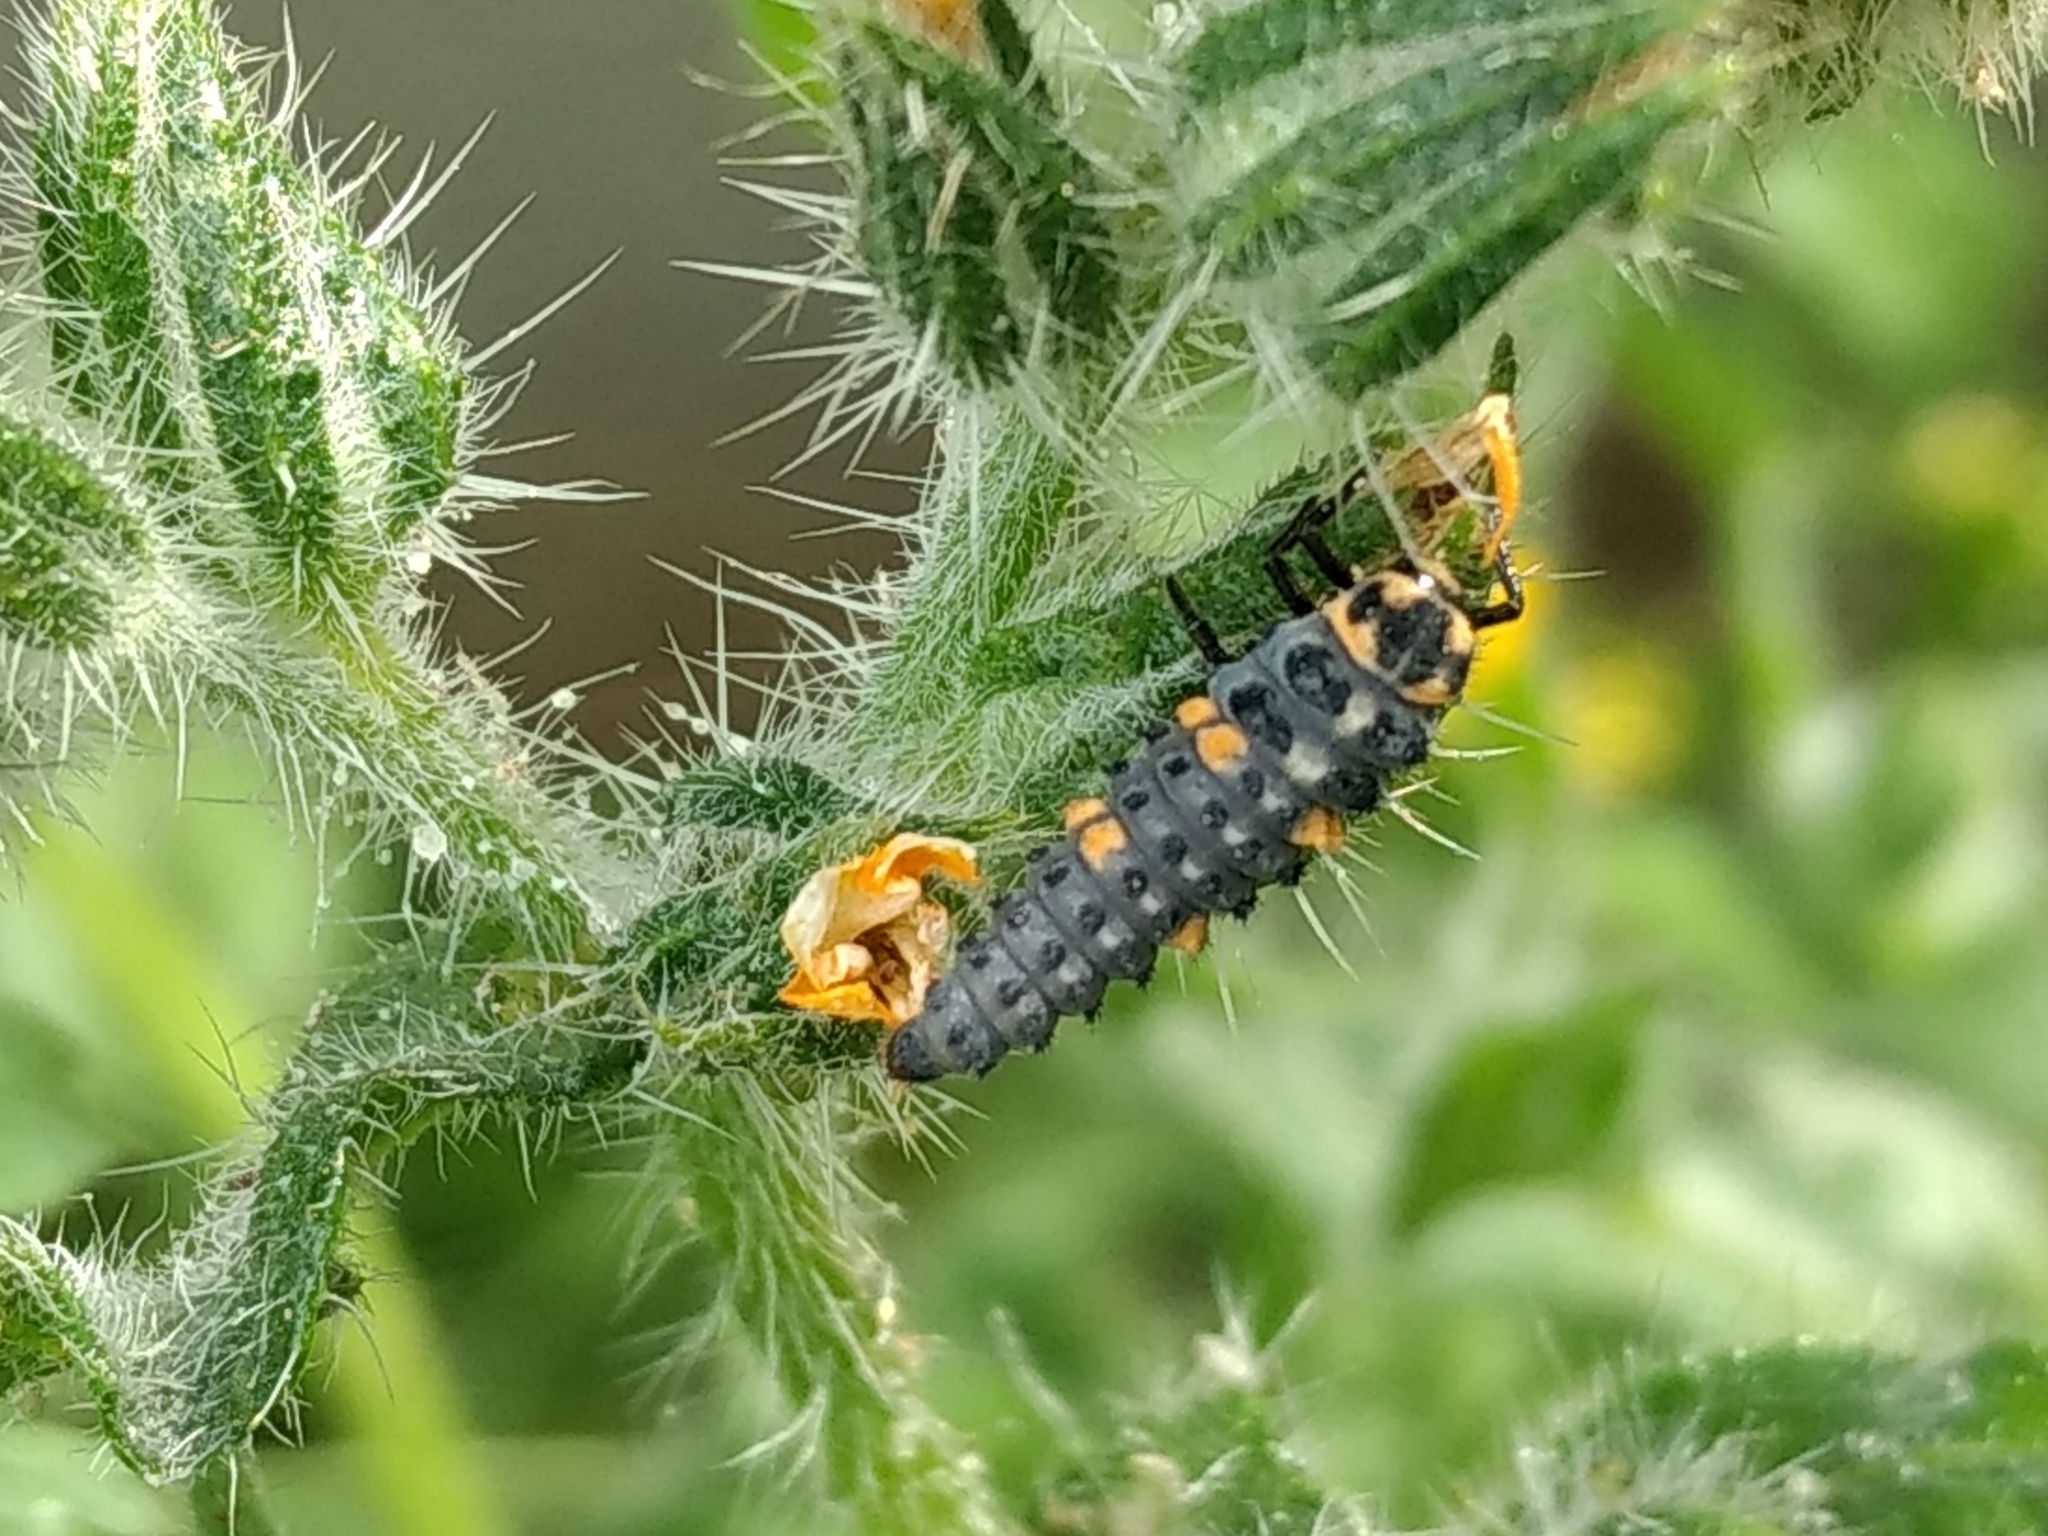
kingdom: Animalia
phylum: Arthropoda
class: Insecta
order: Coleoptera
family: Coccinellidae
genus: Coccinella
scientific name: Coccinella septempunctata
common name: Sevenspotted lady beetle
